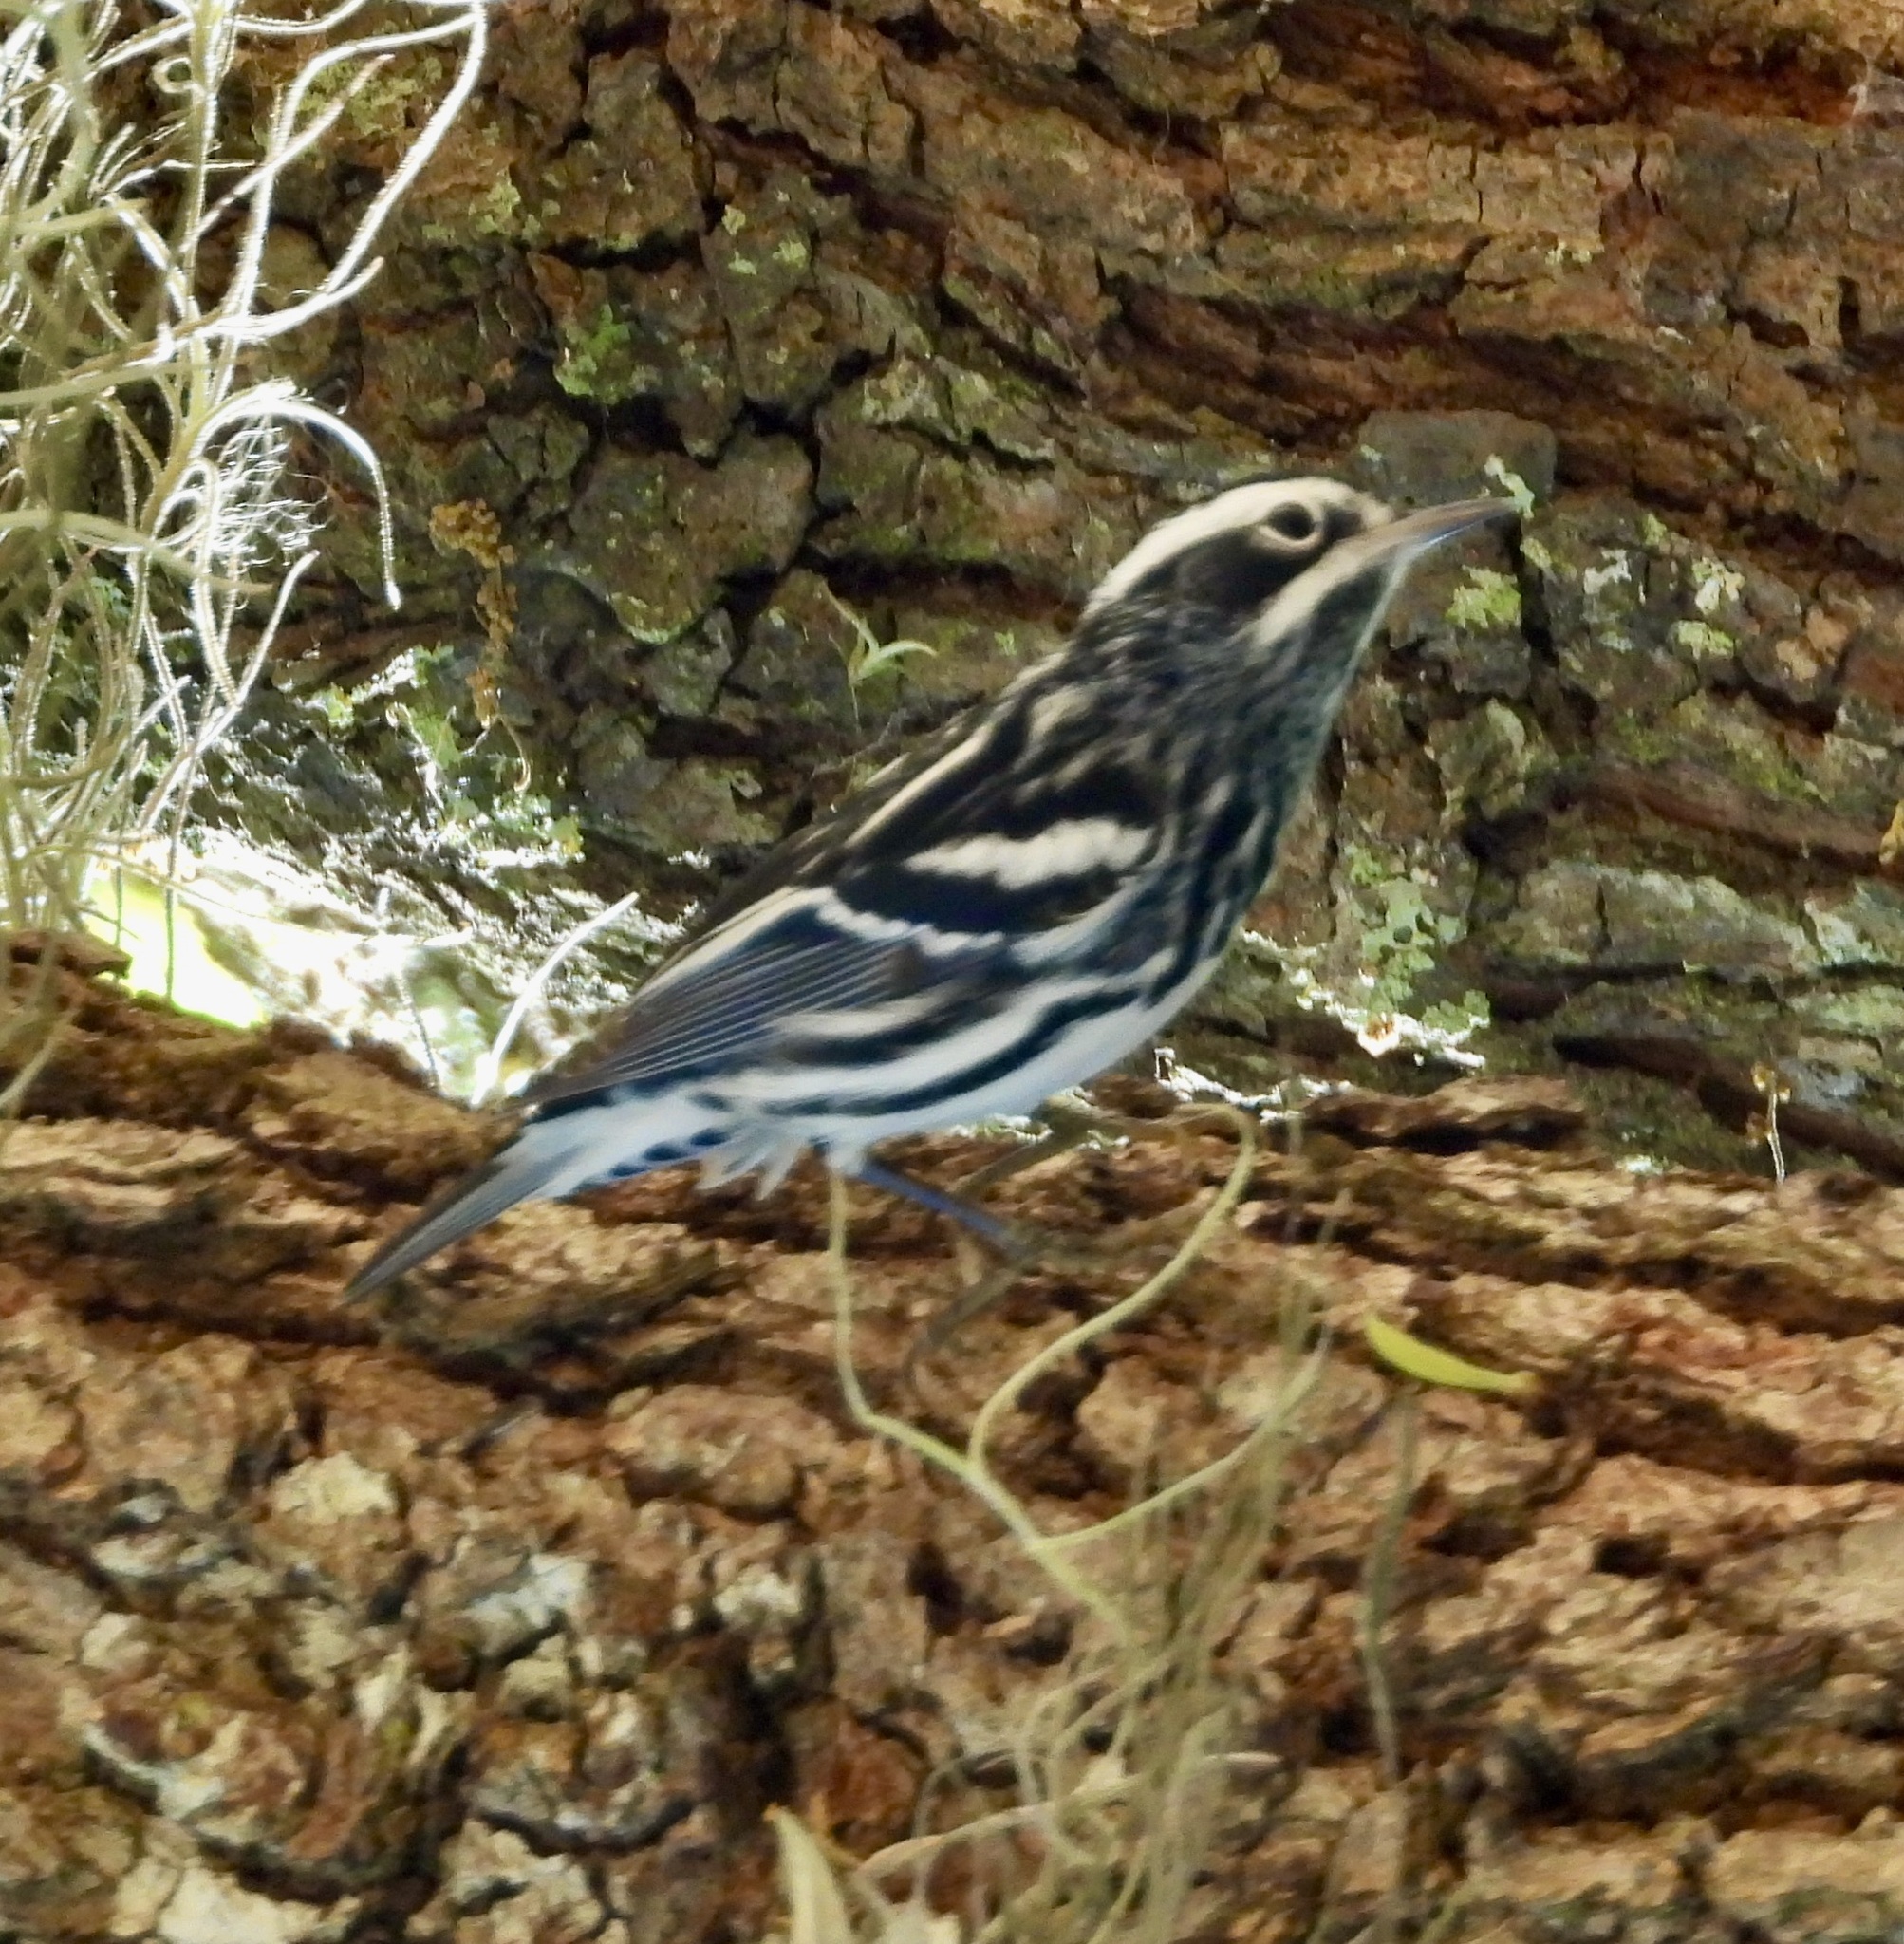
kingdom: Animalia
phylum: Chordata
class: Aves
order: Passeriformes
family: Parulidae
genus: Mniotilta
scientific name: Mniotilta varia
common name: Black-and-white warbler
